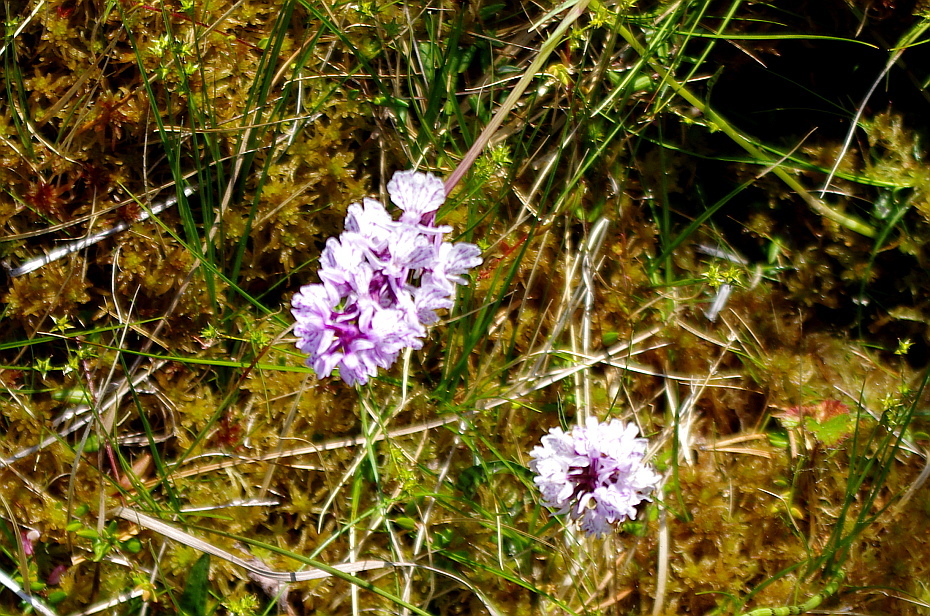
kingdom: Plantae
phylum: Tracheophyta
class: Liliopsida
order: Asparagales
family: Orchidaceae
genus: Dactylorhiza
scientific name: Dactylorhiza maculata
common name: Heath spotted-orchid
